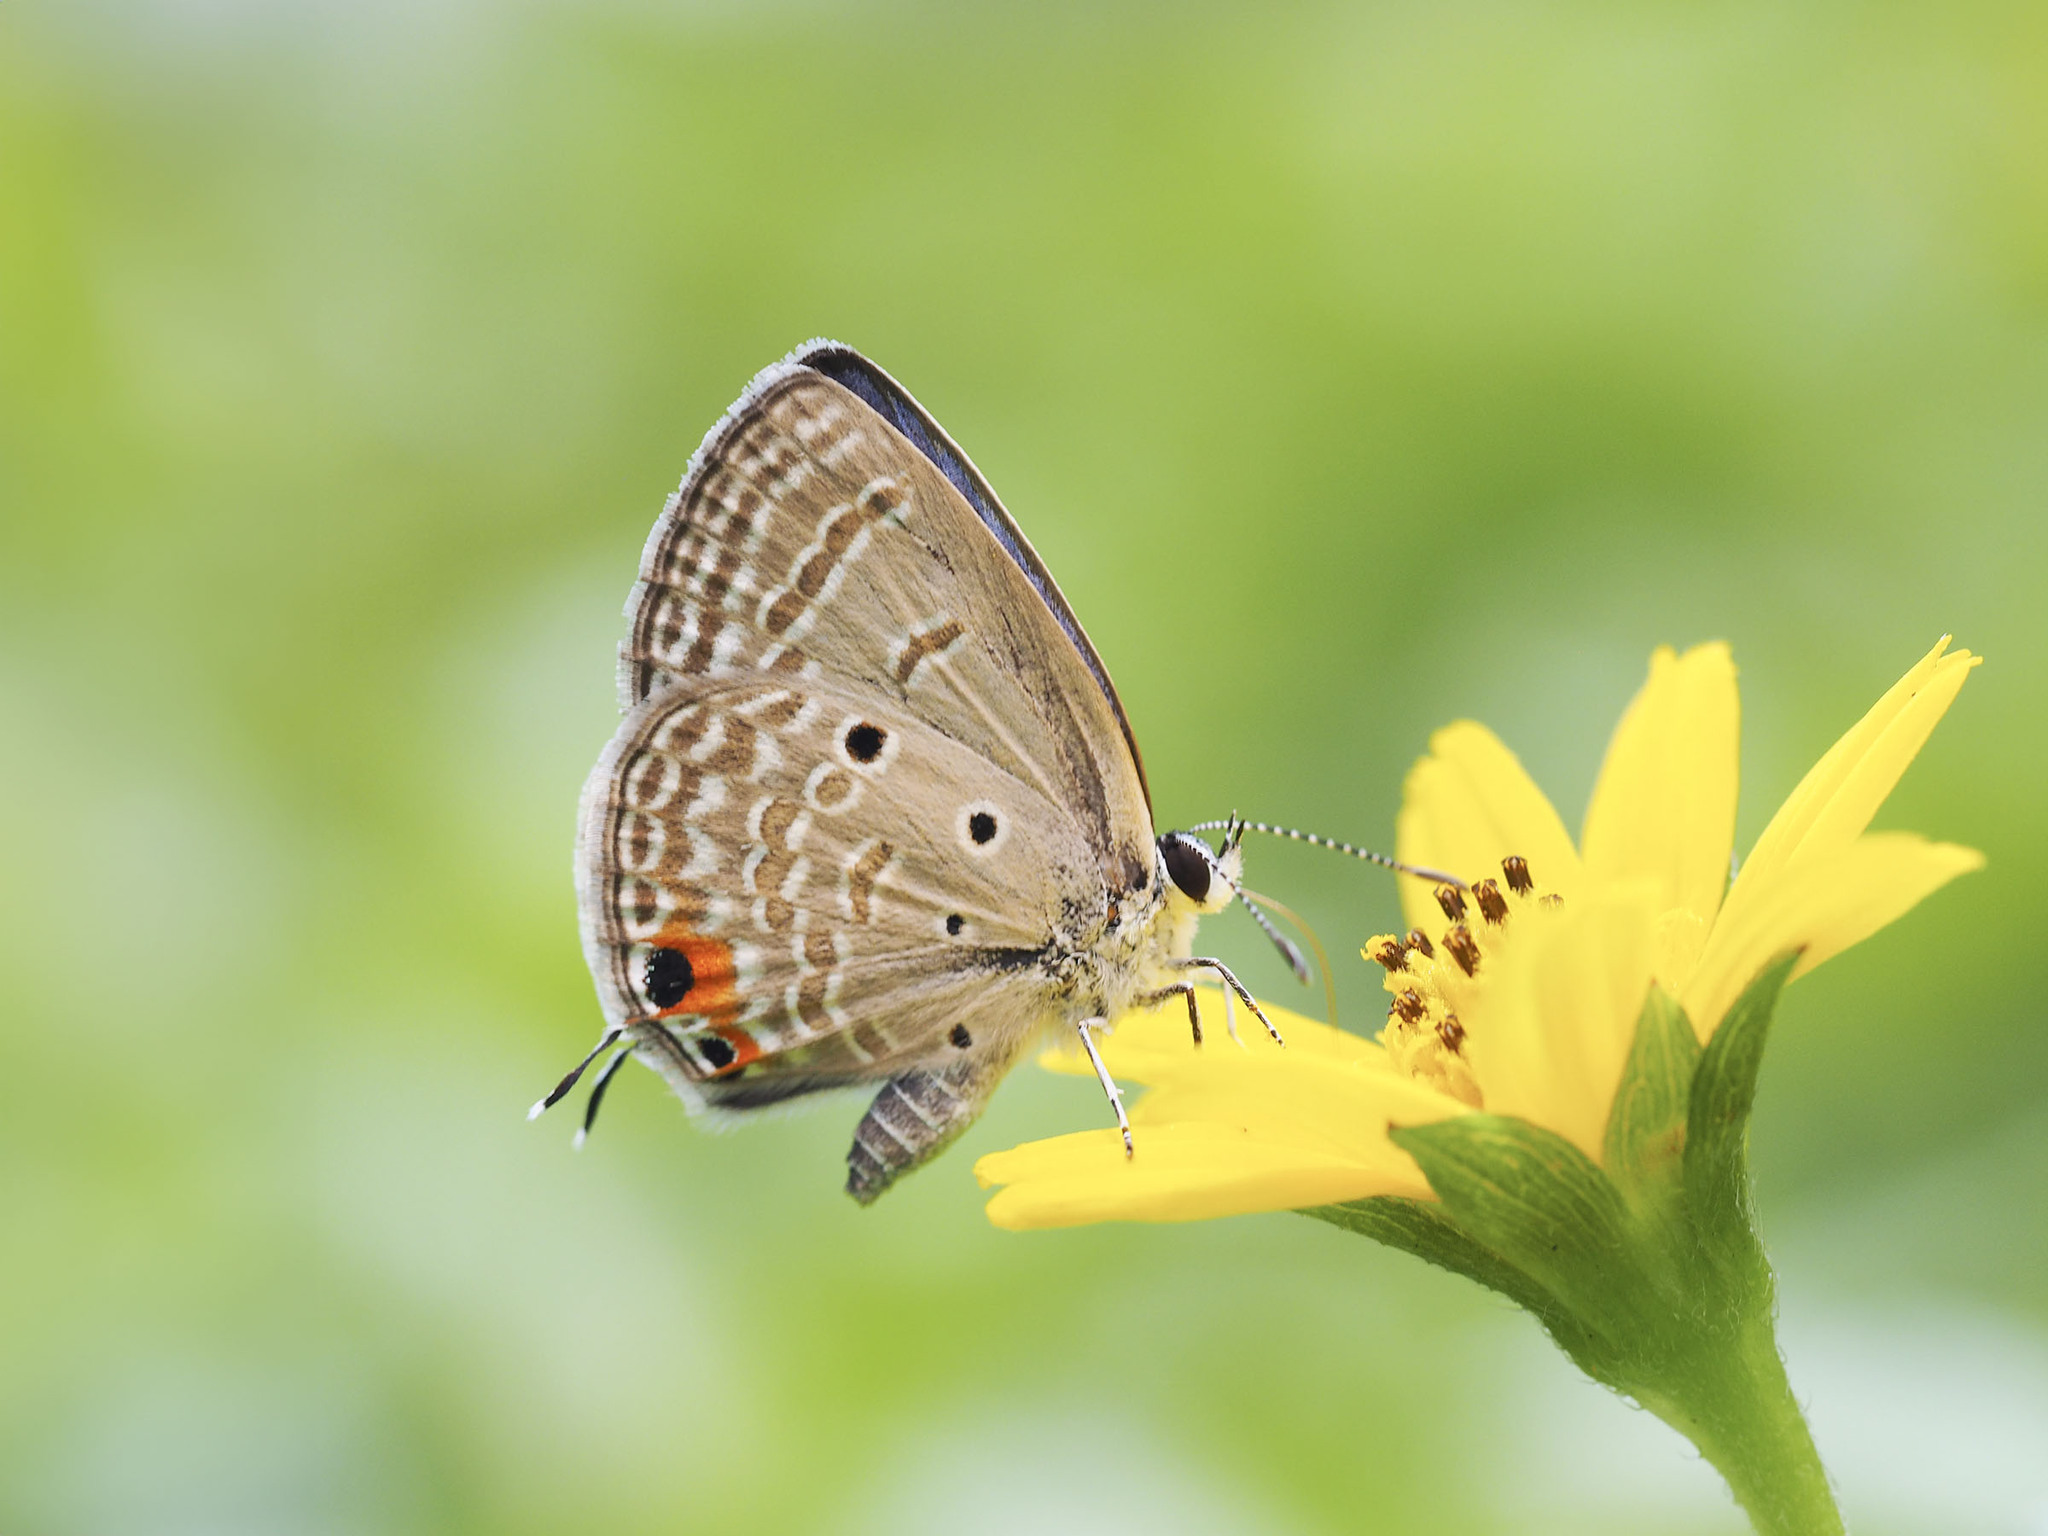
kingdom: Animalia
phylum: Arthropoda
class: Insecta
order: Lepidoptera
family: Lycaenidae
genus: Luthrodes
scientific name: Luthrodes pandava
